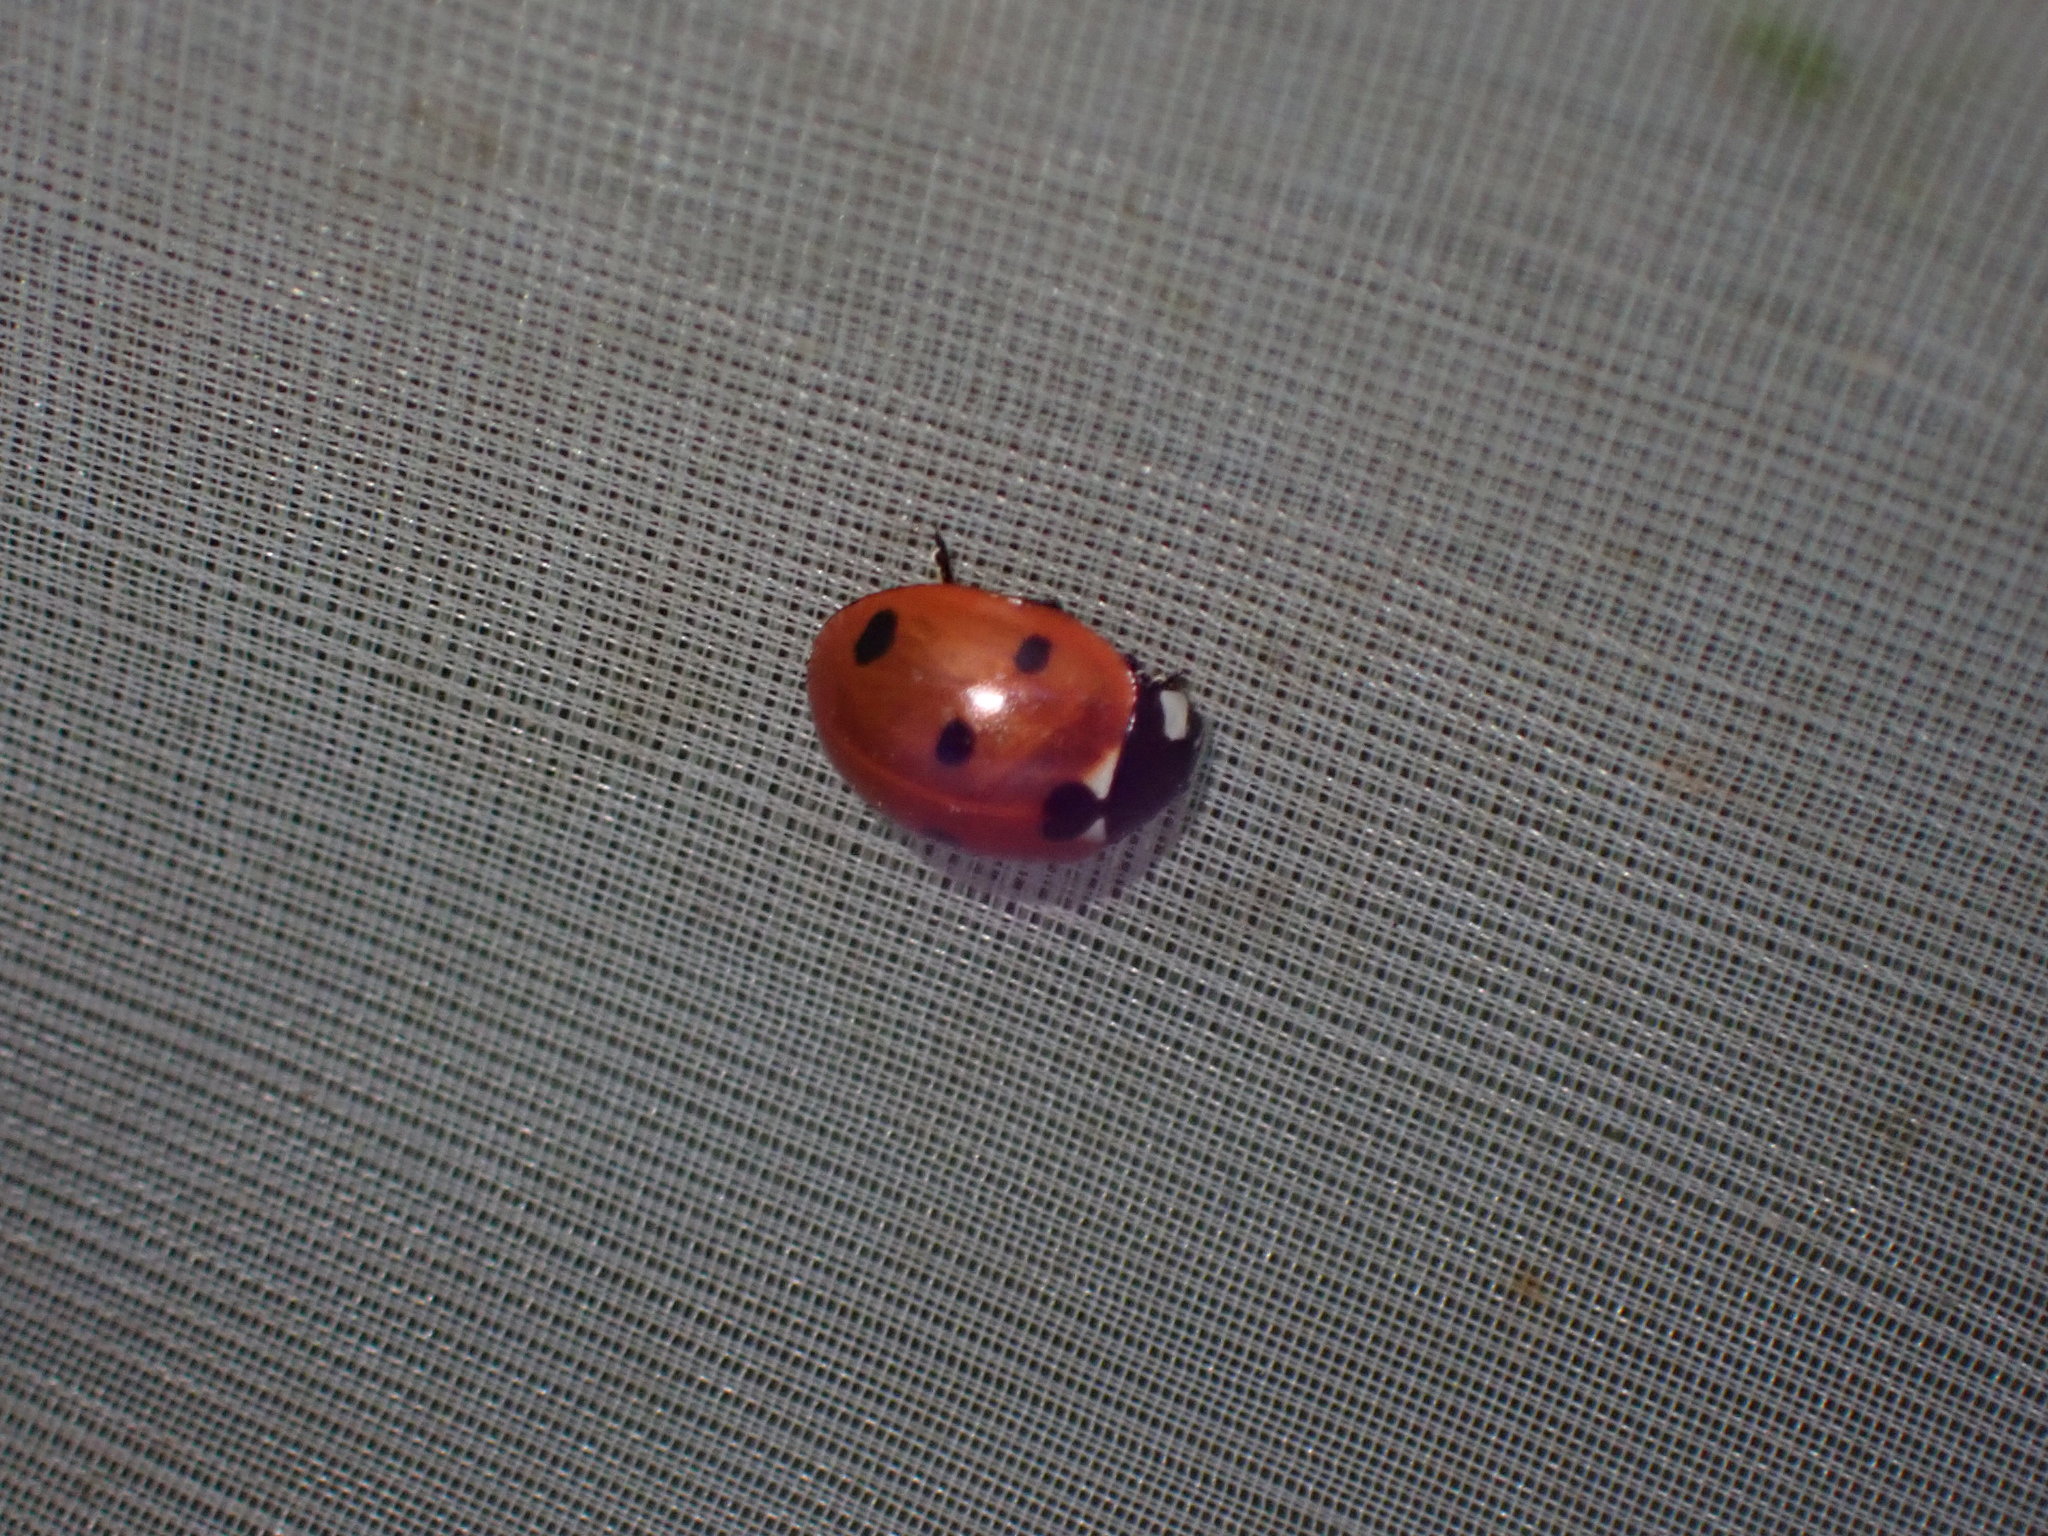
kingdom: Animalia
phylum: Arthropoda
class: Insecta
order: Coleoptera
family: Coccinellidae
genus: Coccinella
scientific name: Coccinella septempunctata
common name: Sevenspotted lady beetle
